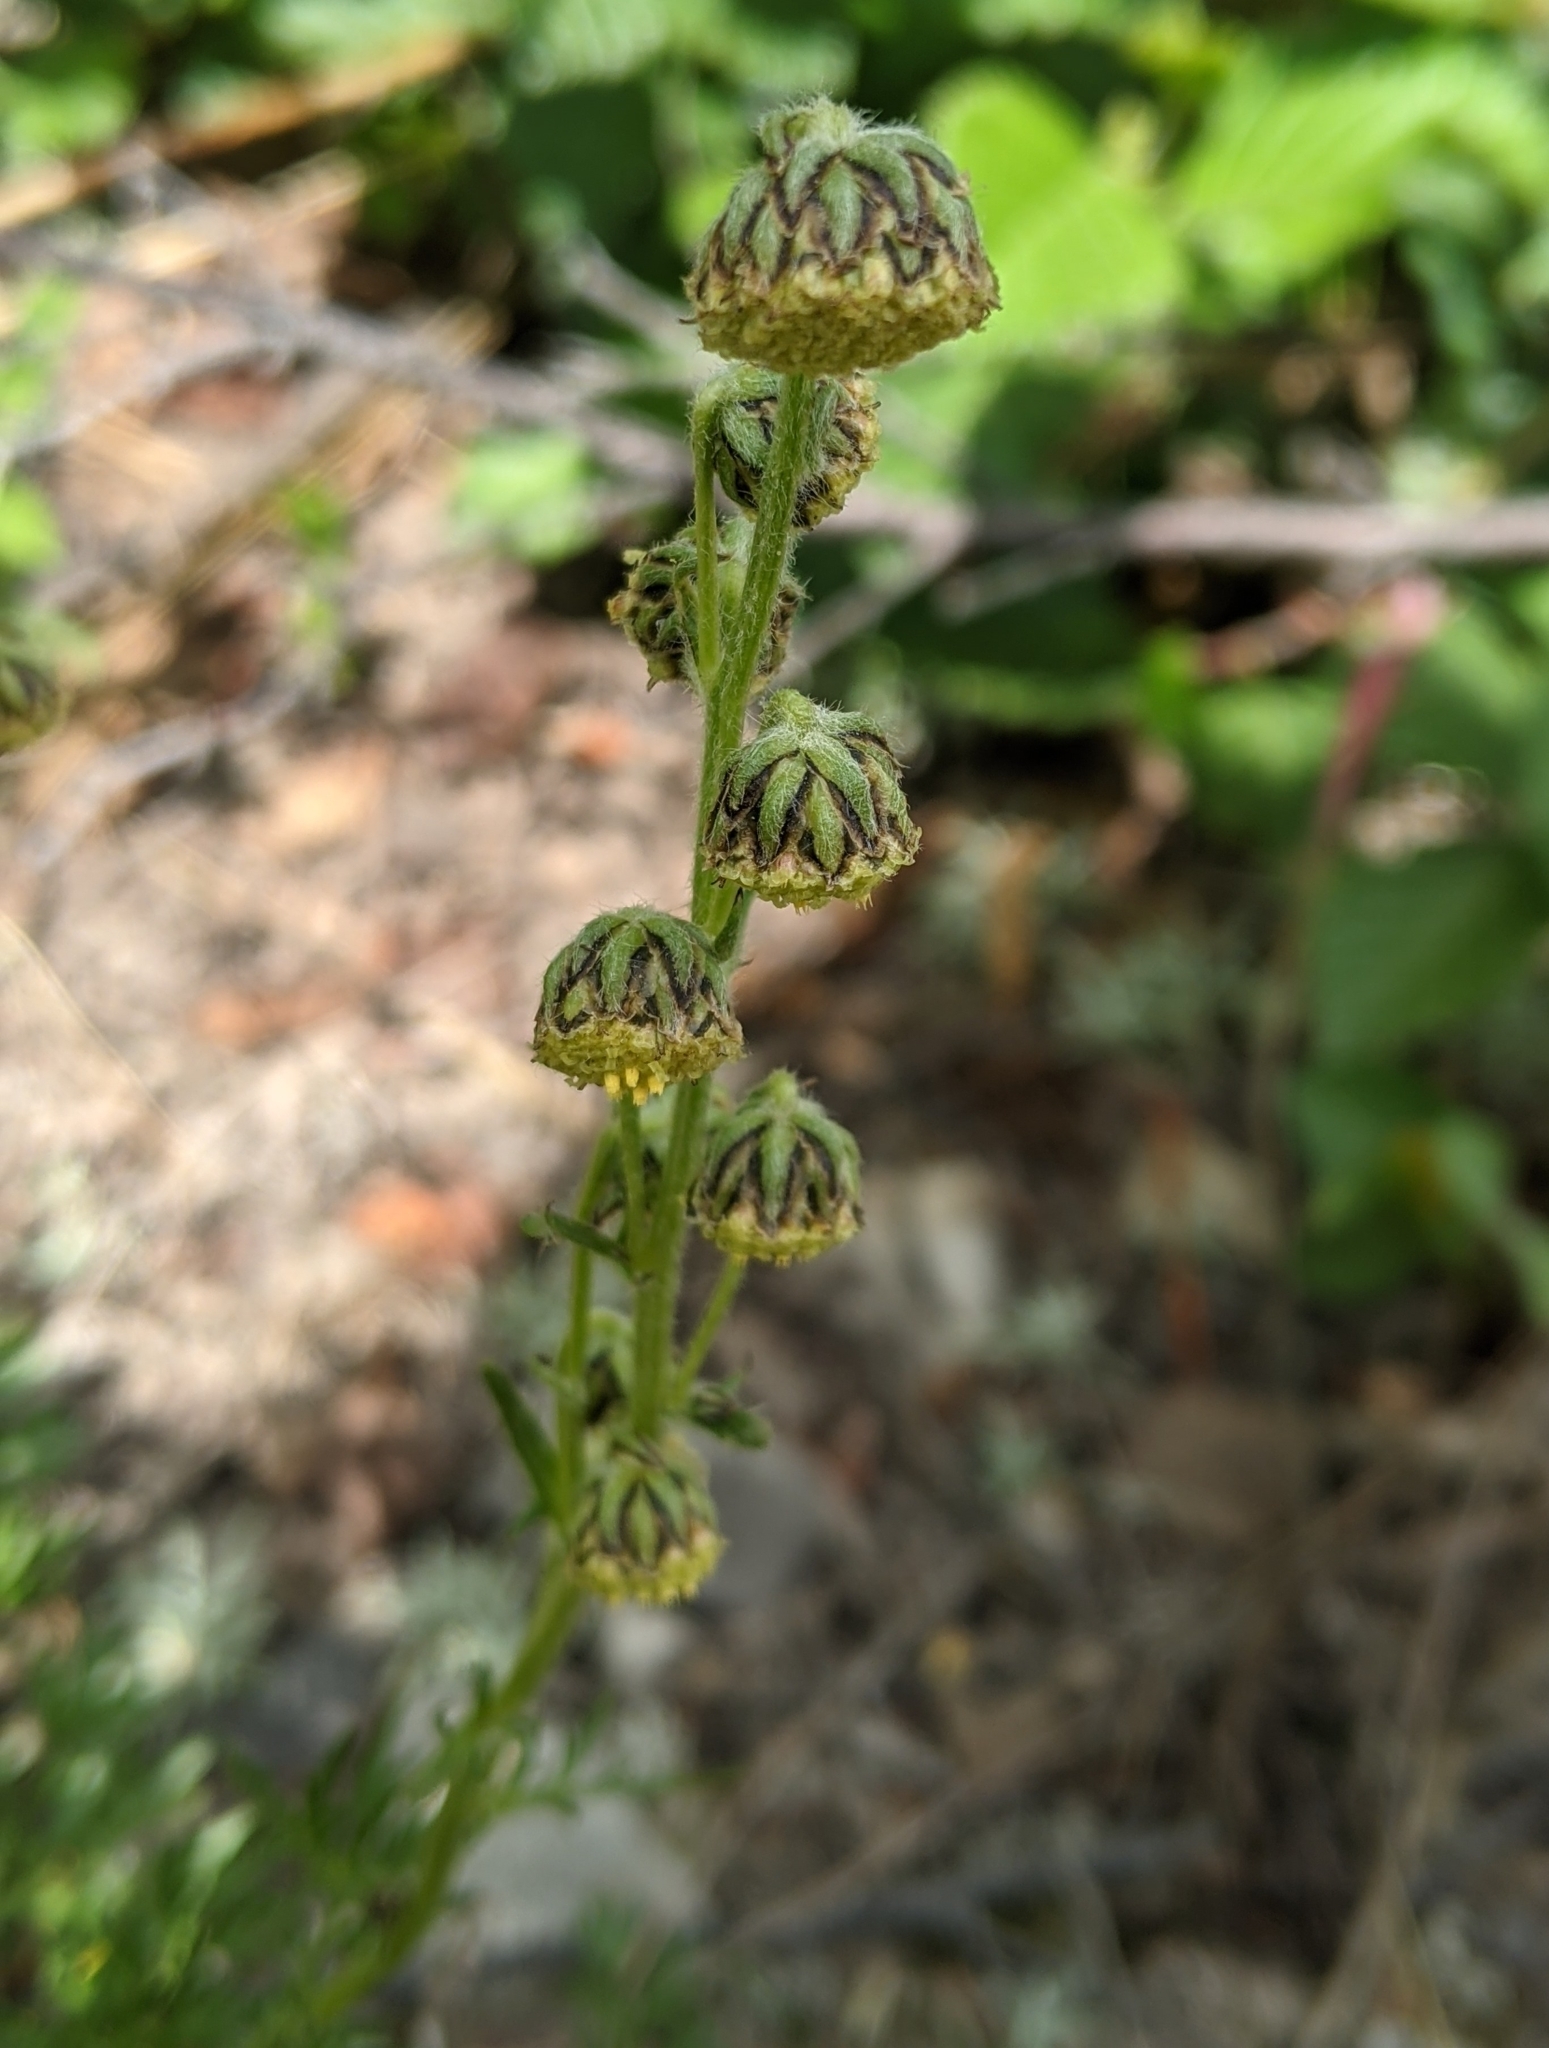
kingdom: Plantae
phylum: Tracheophyta
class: Magnoliopsida
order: Asterales
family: Asteraceae
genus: Artemisia
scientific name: Artemisia norvegica
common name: Norwegian mugwort
